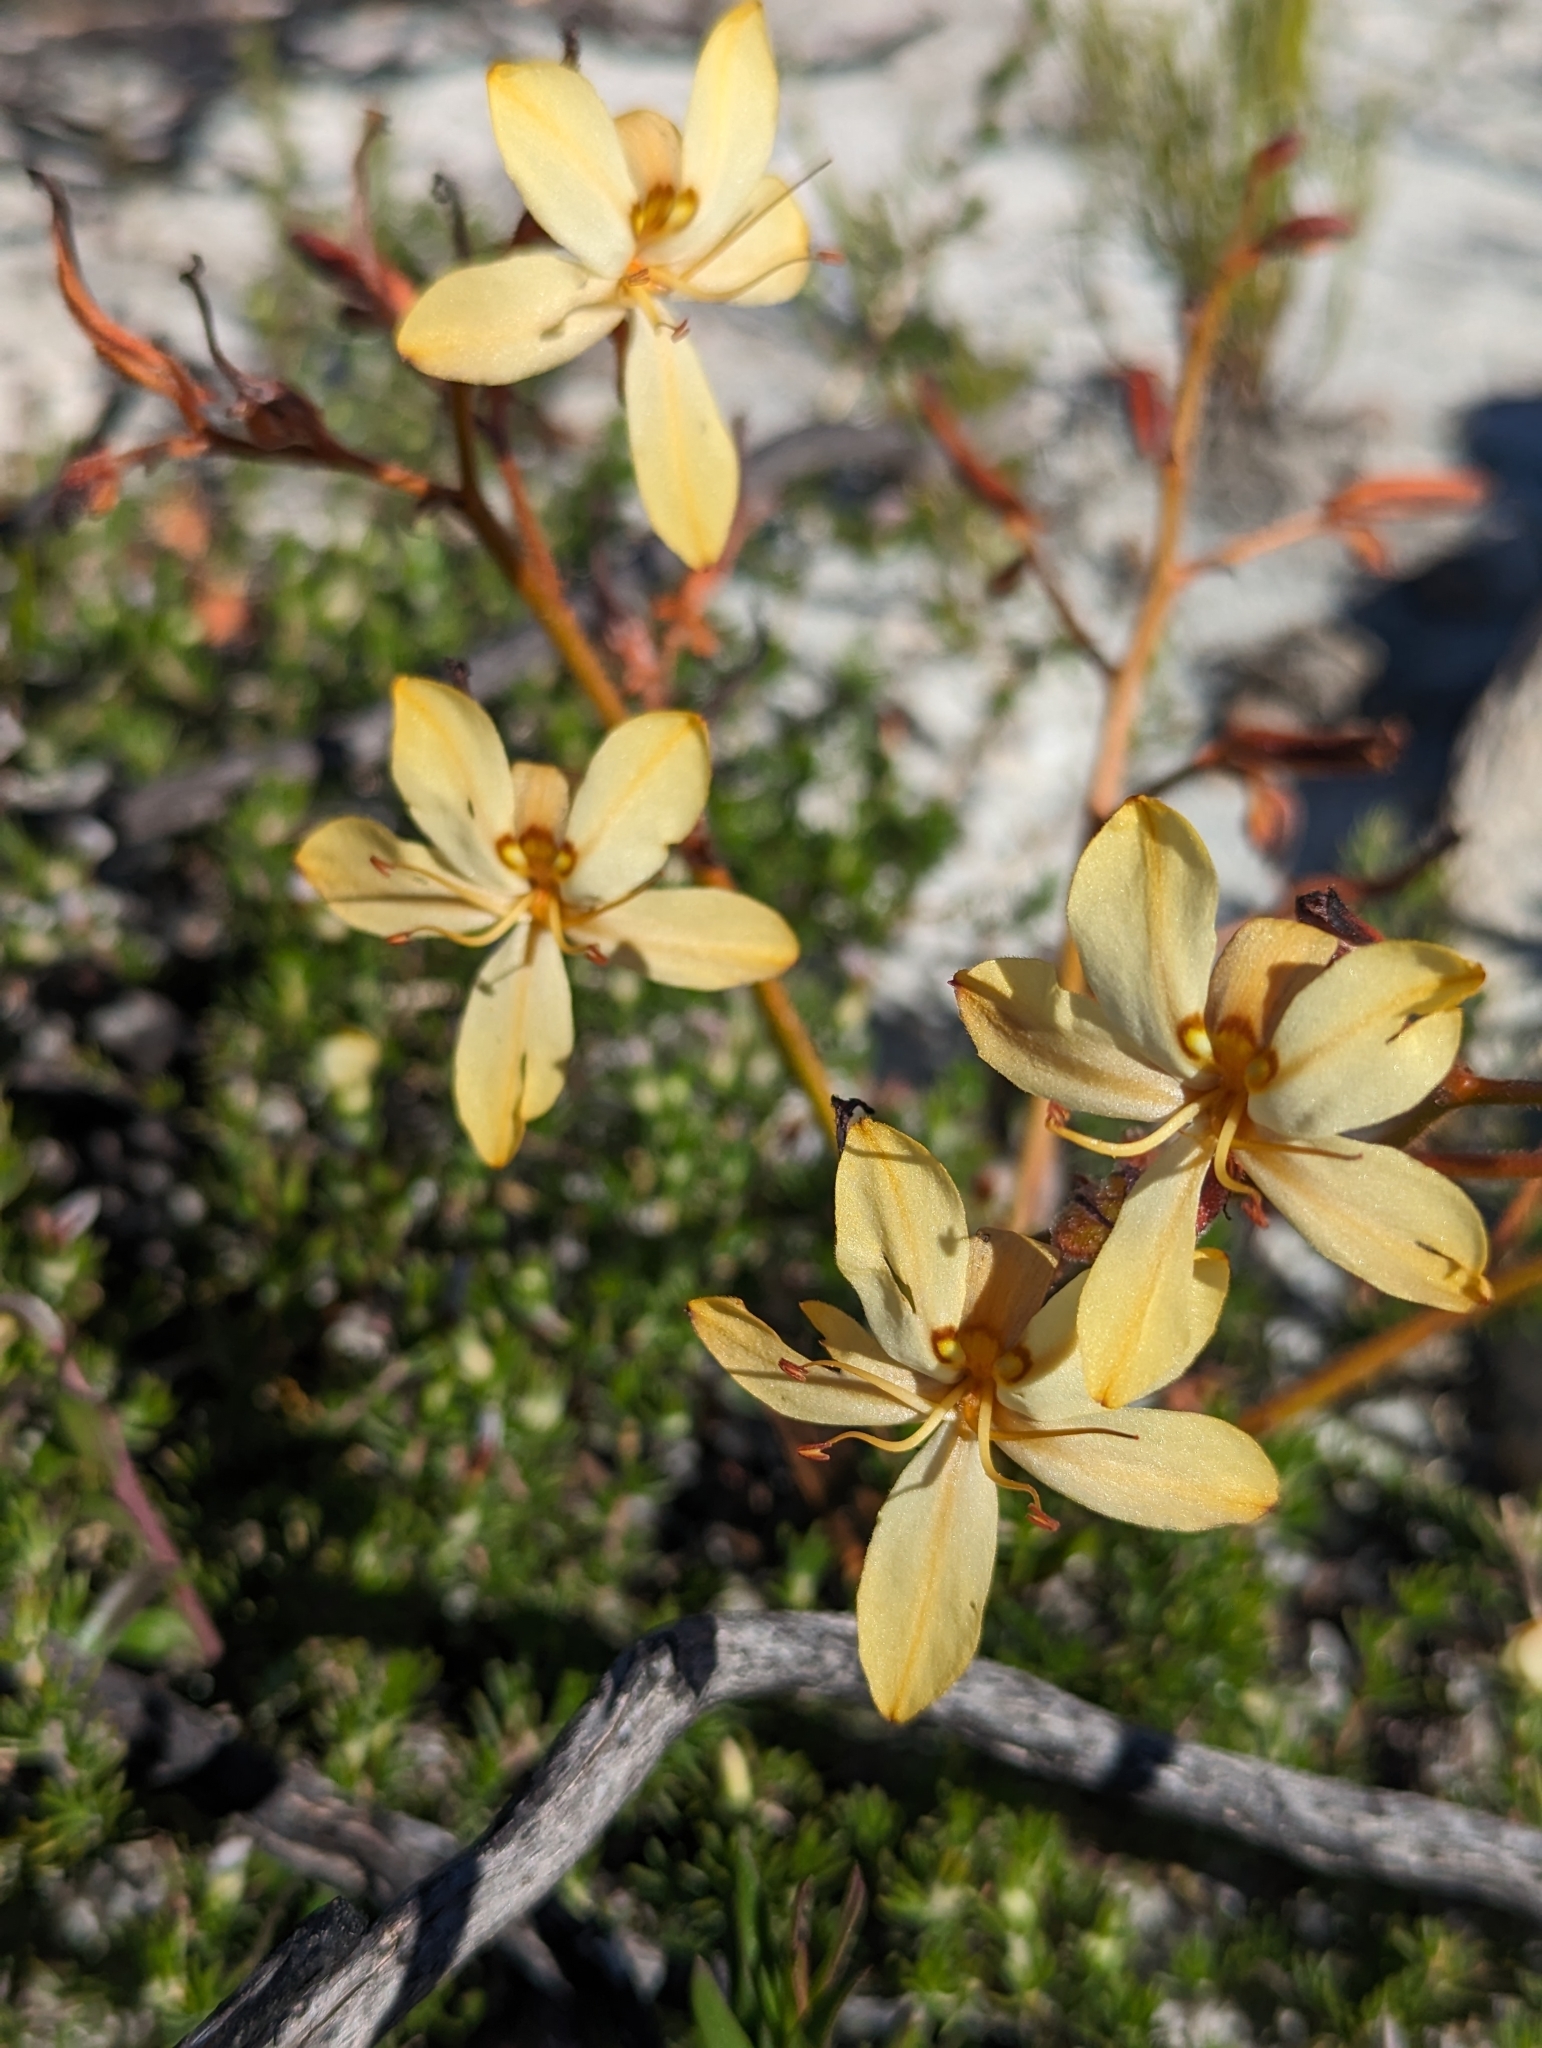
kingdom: Plantae
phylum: Tracheophyta
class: Liliopsida
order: Commelinales
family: Haemodoraceae
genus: Wachendorfia
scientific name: Wachendorfia paniculata
